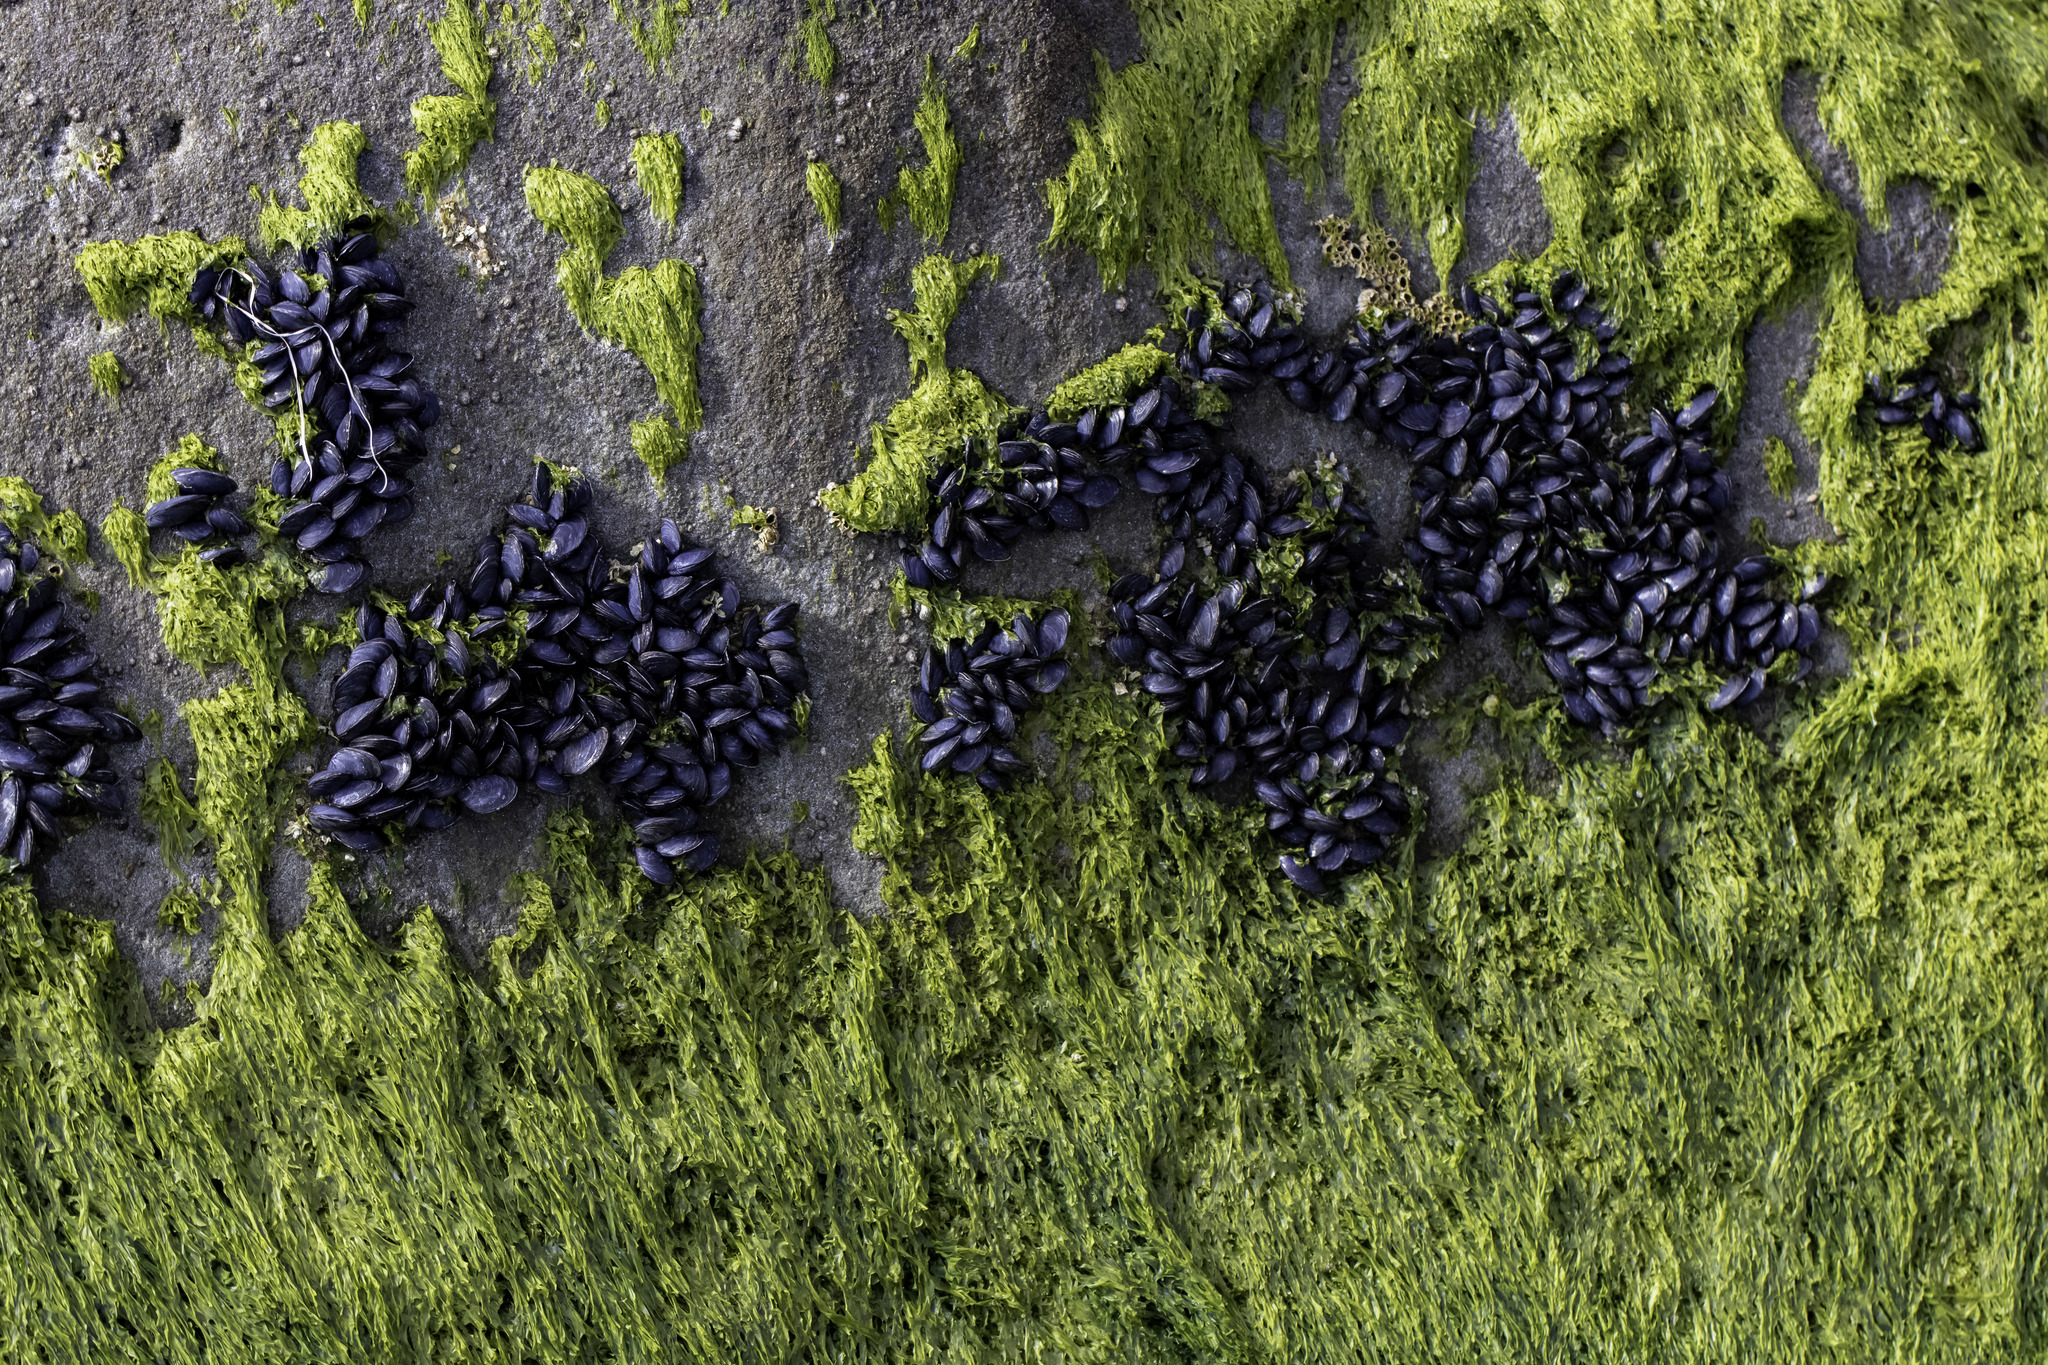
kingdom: Animalia
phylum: Mollusca
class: Bivalvia
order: Mytilida
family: Mytilidae
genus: Mytilus
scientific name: Mytilus
